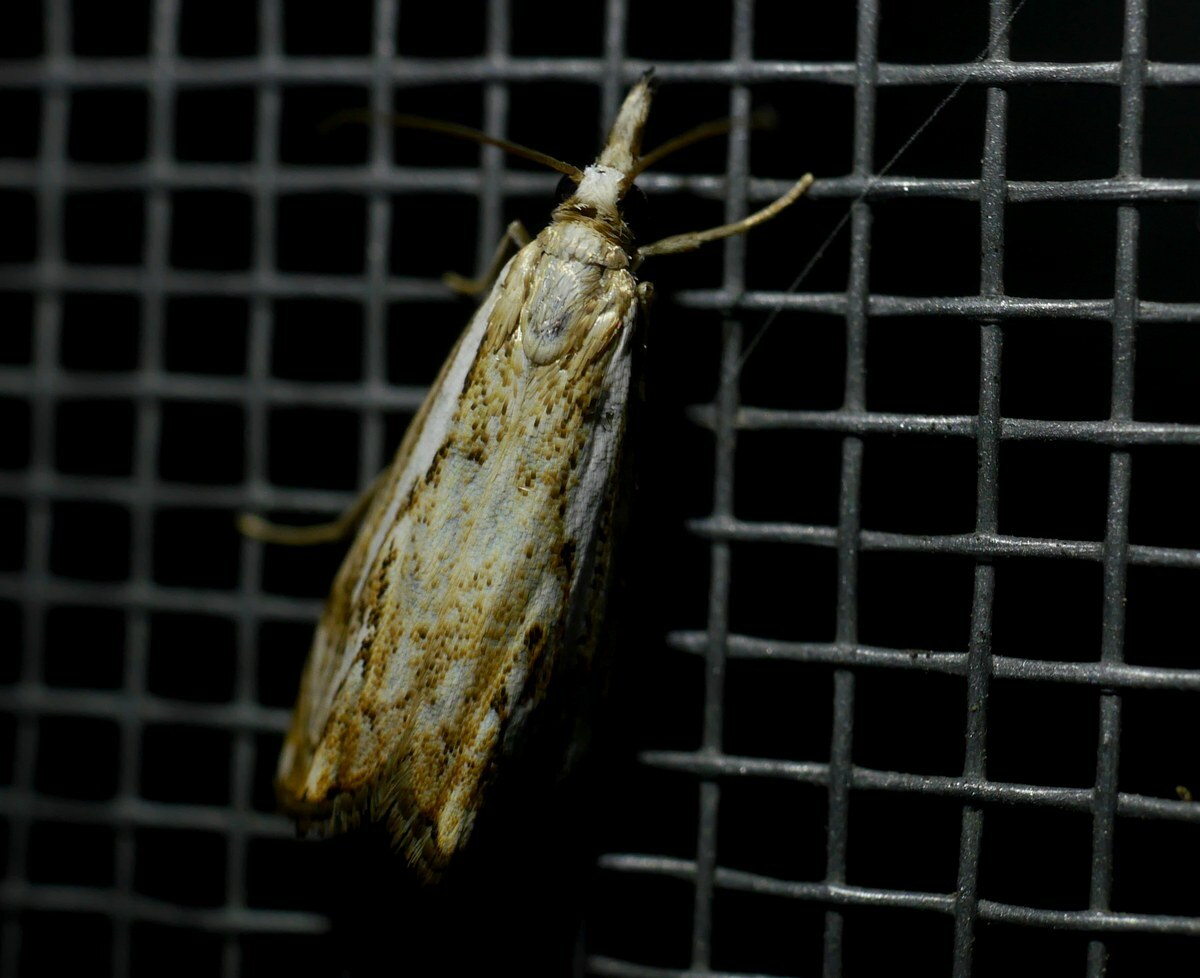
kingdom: Animalia
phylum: Arthropoda
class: Insecta
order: Lepidoptera
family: Crambidae
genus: Catoptria
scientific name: Catoptria falsella
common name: Chequered grass-veneer
